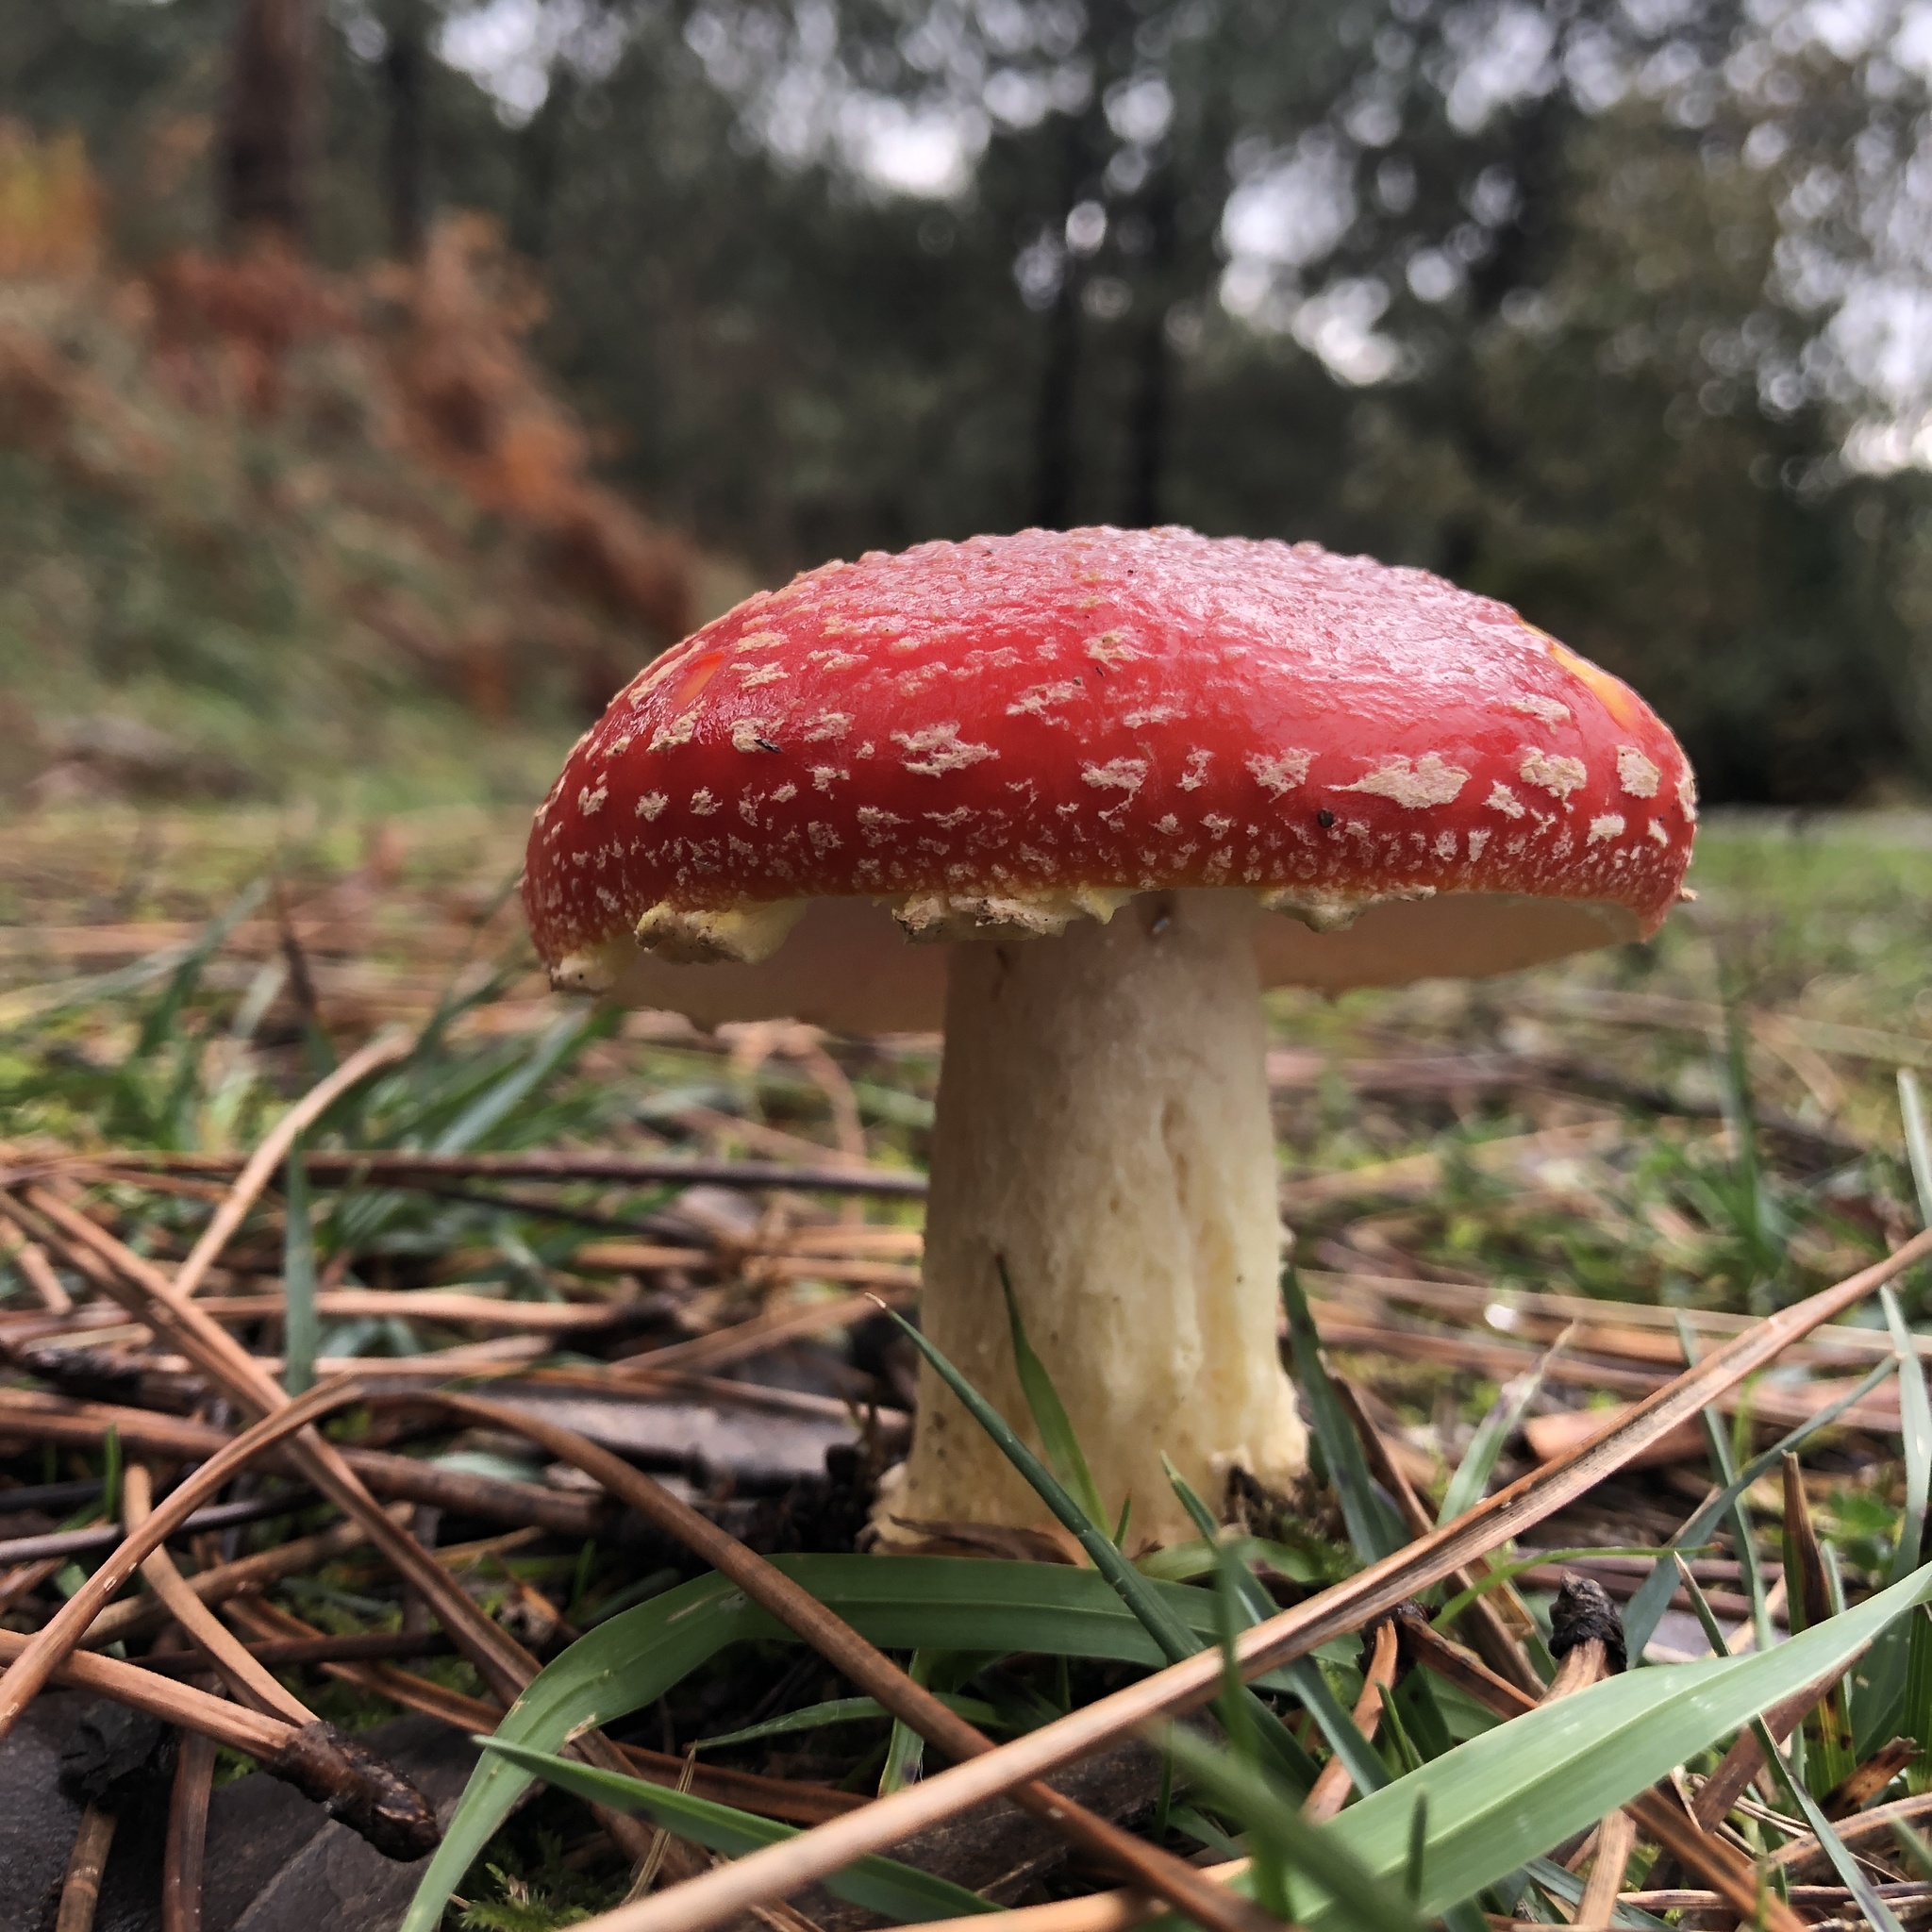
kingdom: Fungi
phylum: Basidiomycota
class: Agaricomycetes
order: Agaricales
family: Amanitaceae
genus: Amanita
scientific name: Amanita muscaria
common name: Fly agaric
